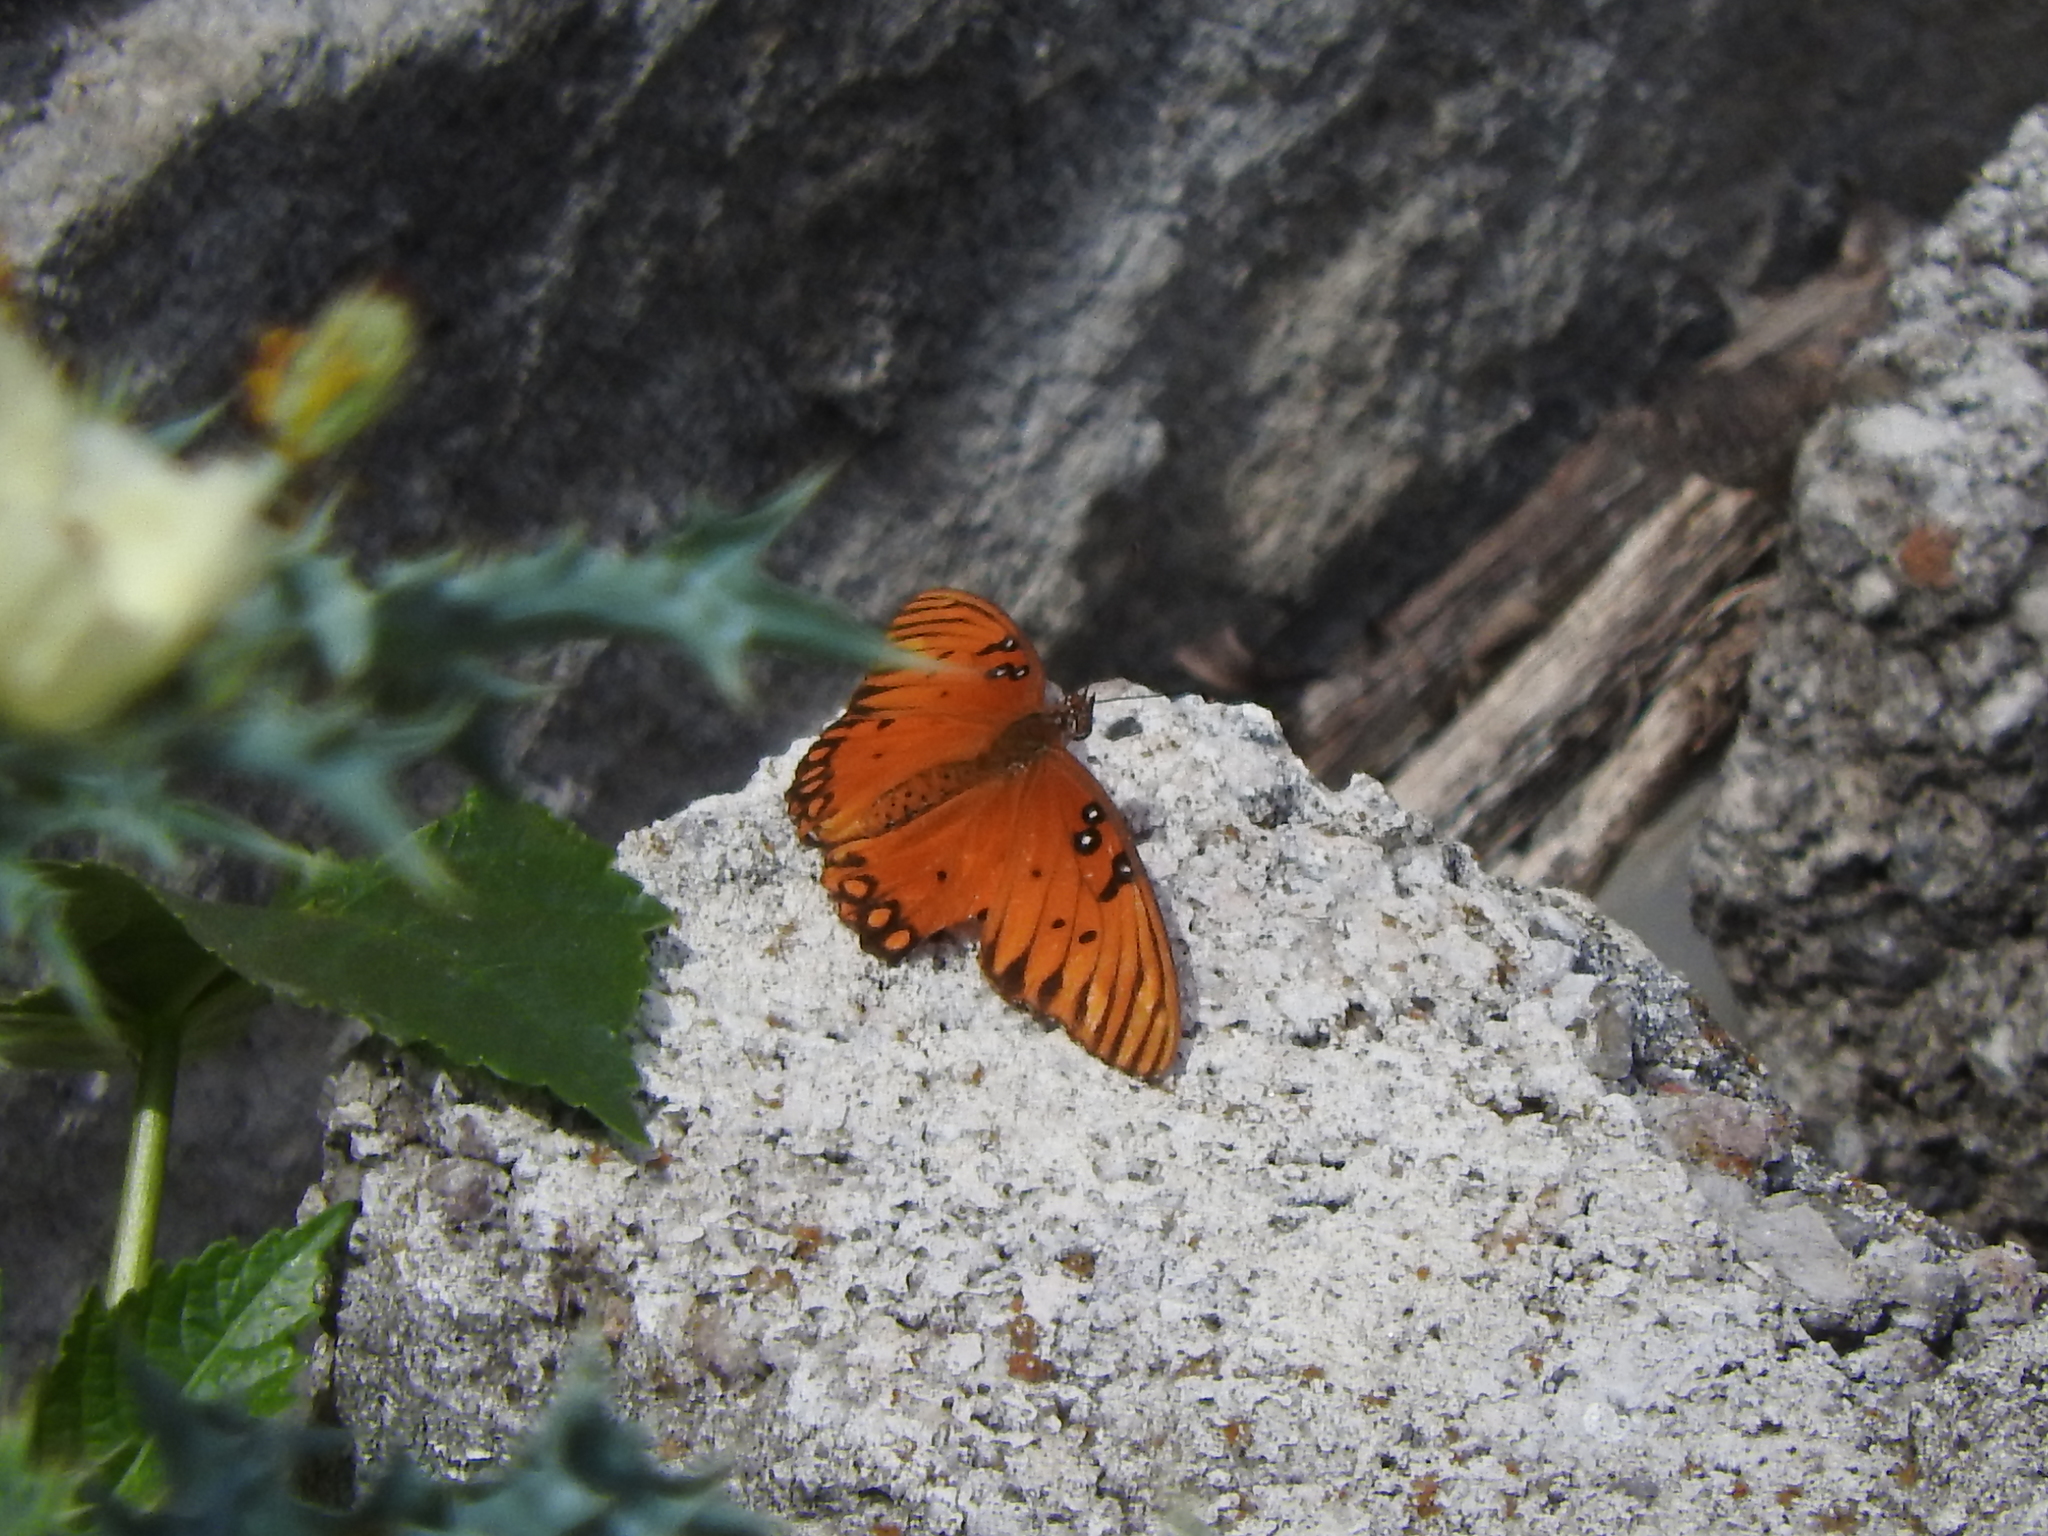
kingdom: Animalia
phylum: Arthropoda
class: Insecta
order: Lepidoptera
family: Nymphalidae
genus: Dione
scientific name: Dione vanillae
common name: Gulf fritillary
